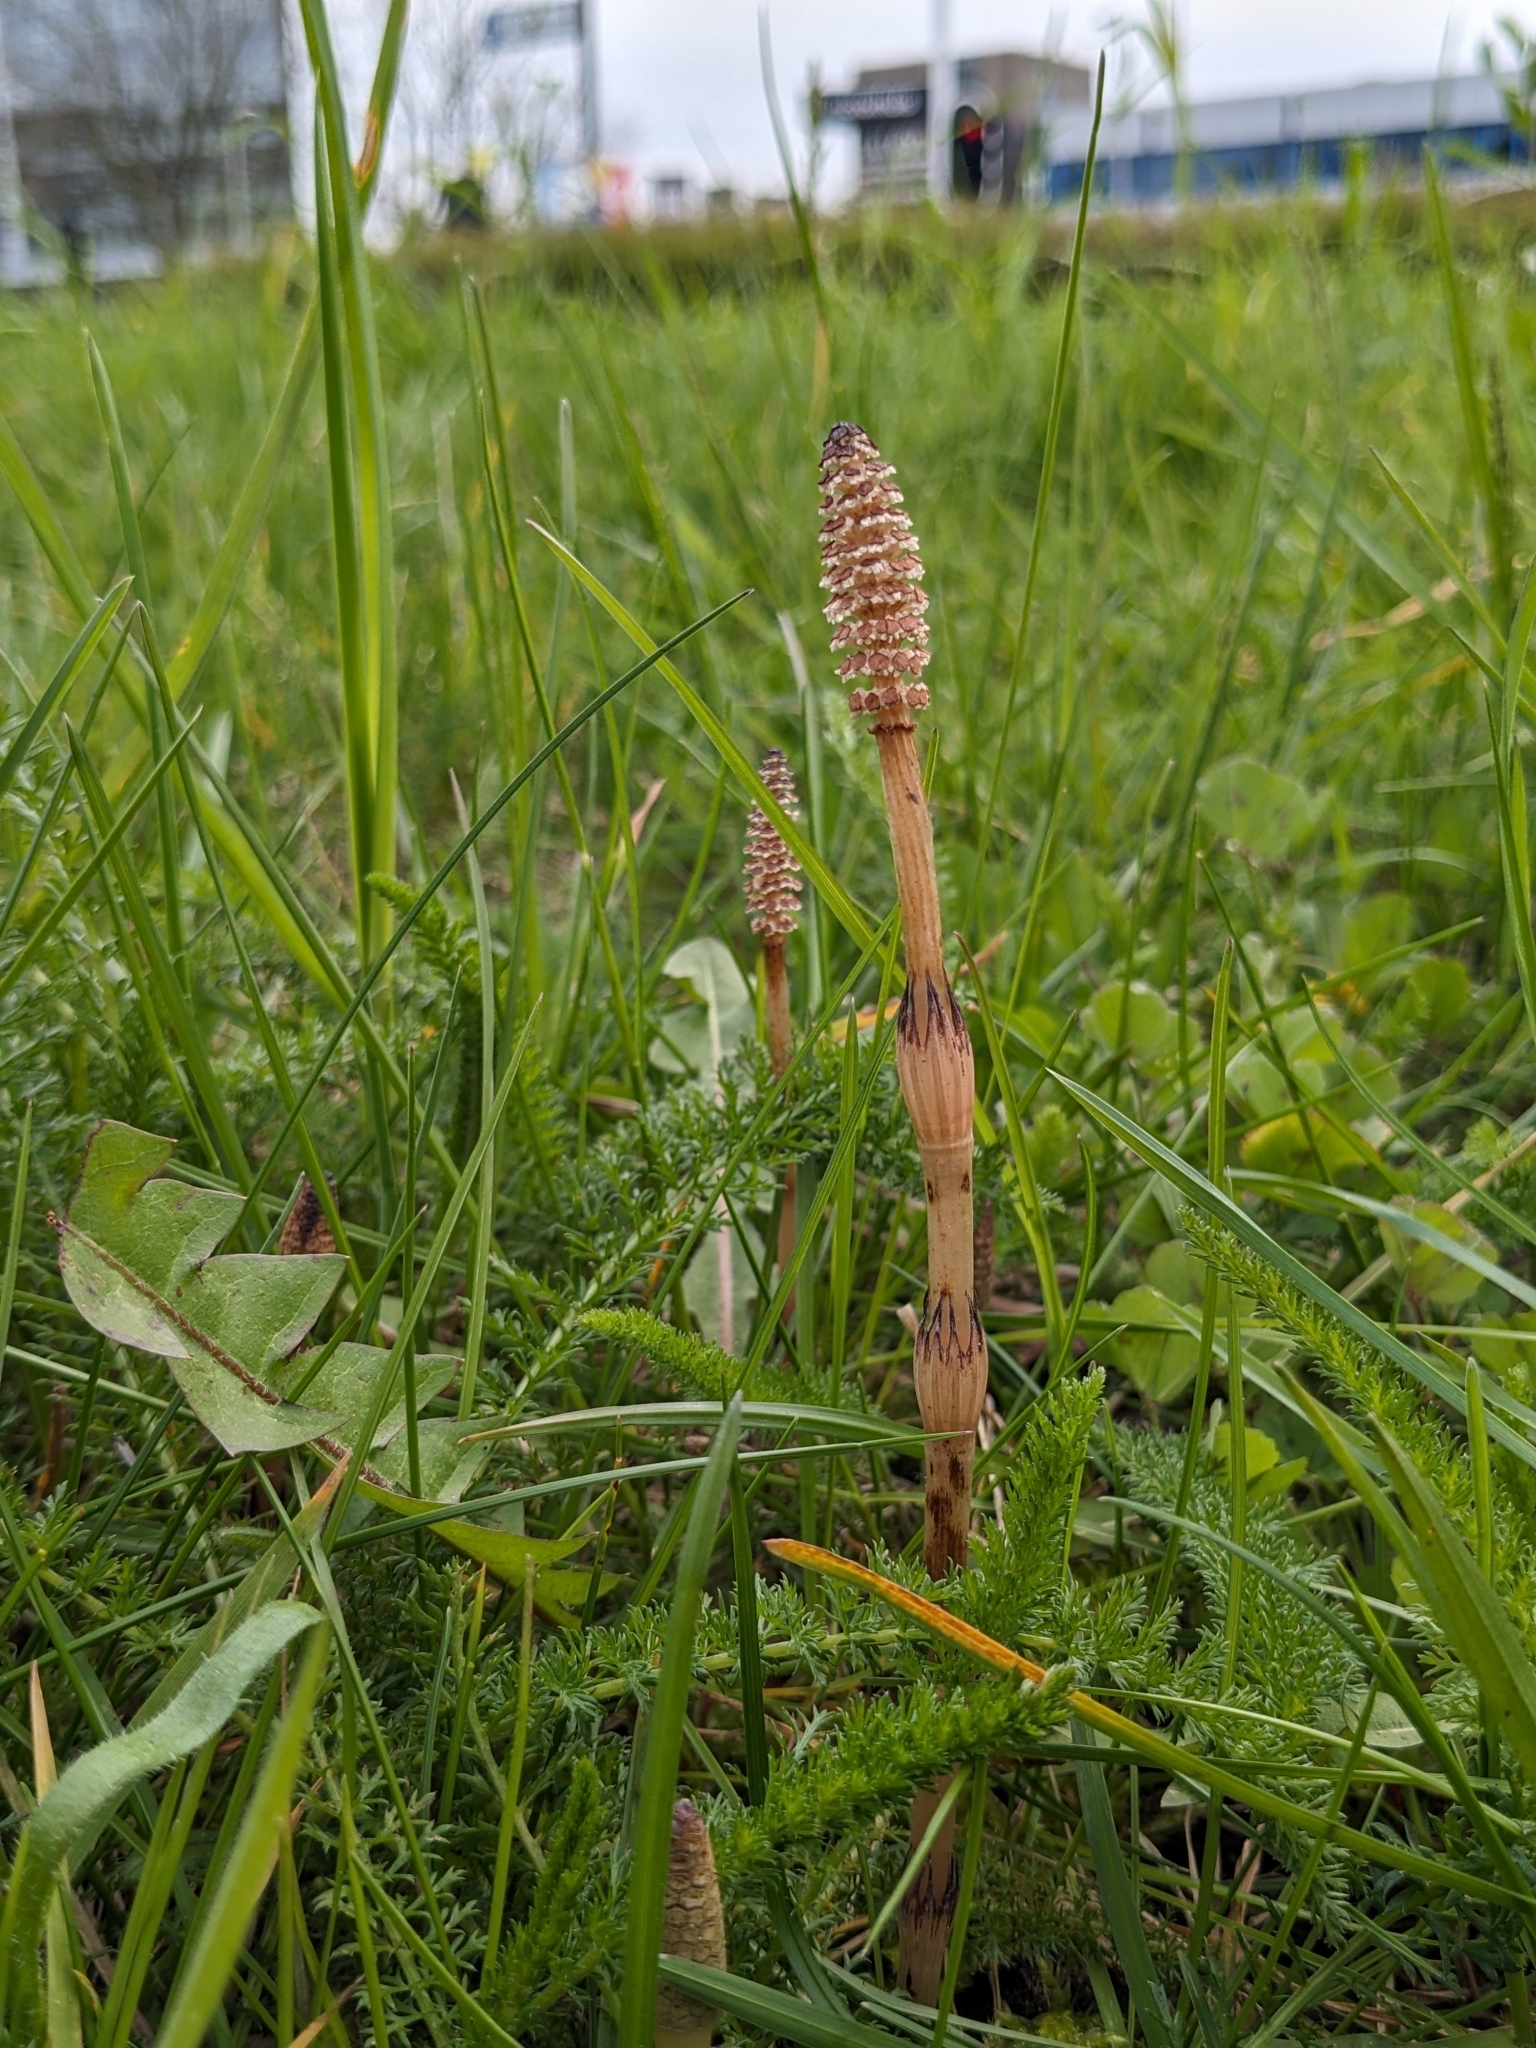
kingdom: Plantae
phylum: Tracheophyta
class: Polypodiopsida
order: Equisetales
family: Equisetaceae
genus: Equisetum
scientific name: Equisetum arvense
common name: Field horsetail
